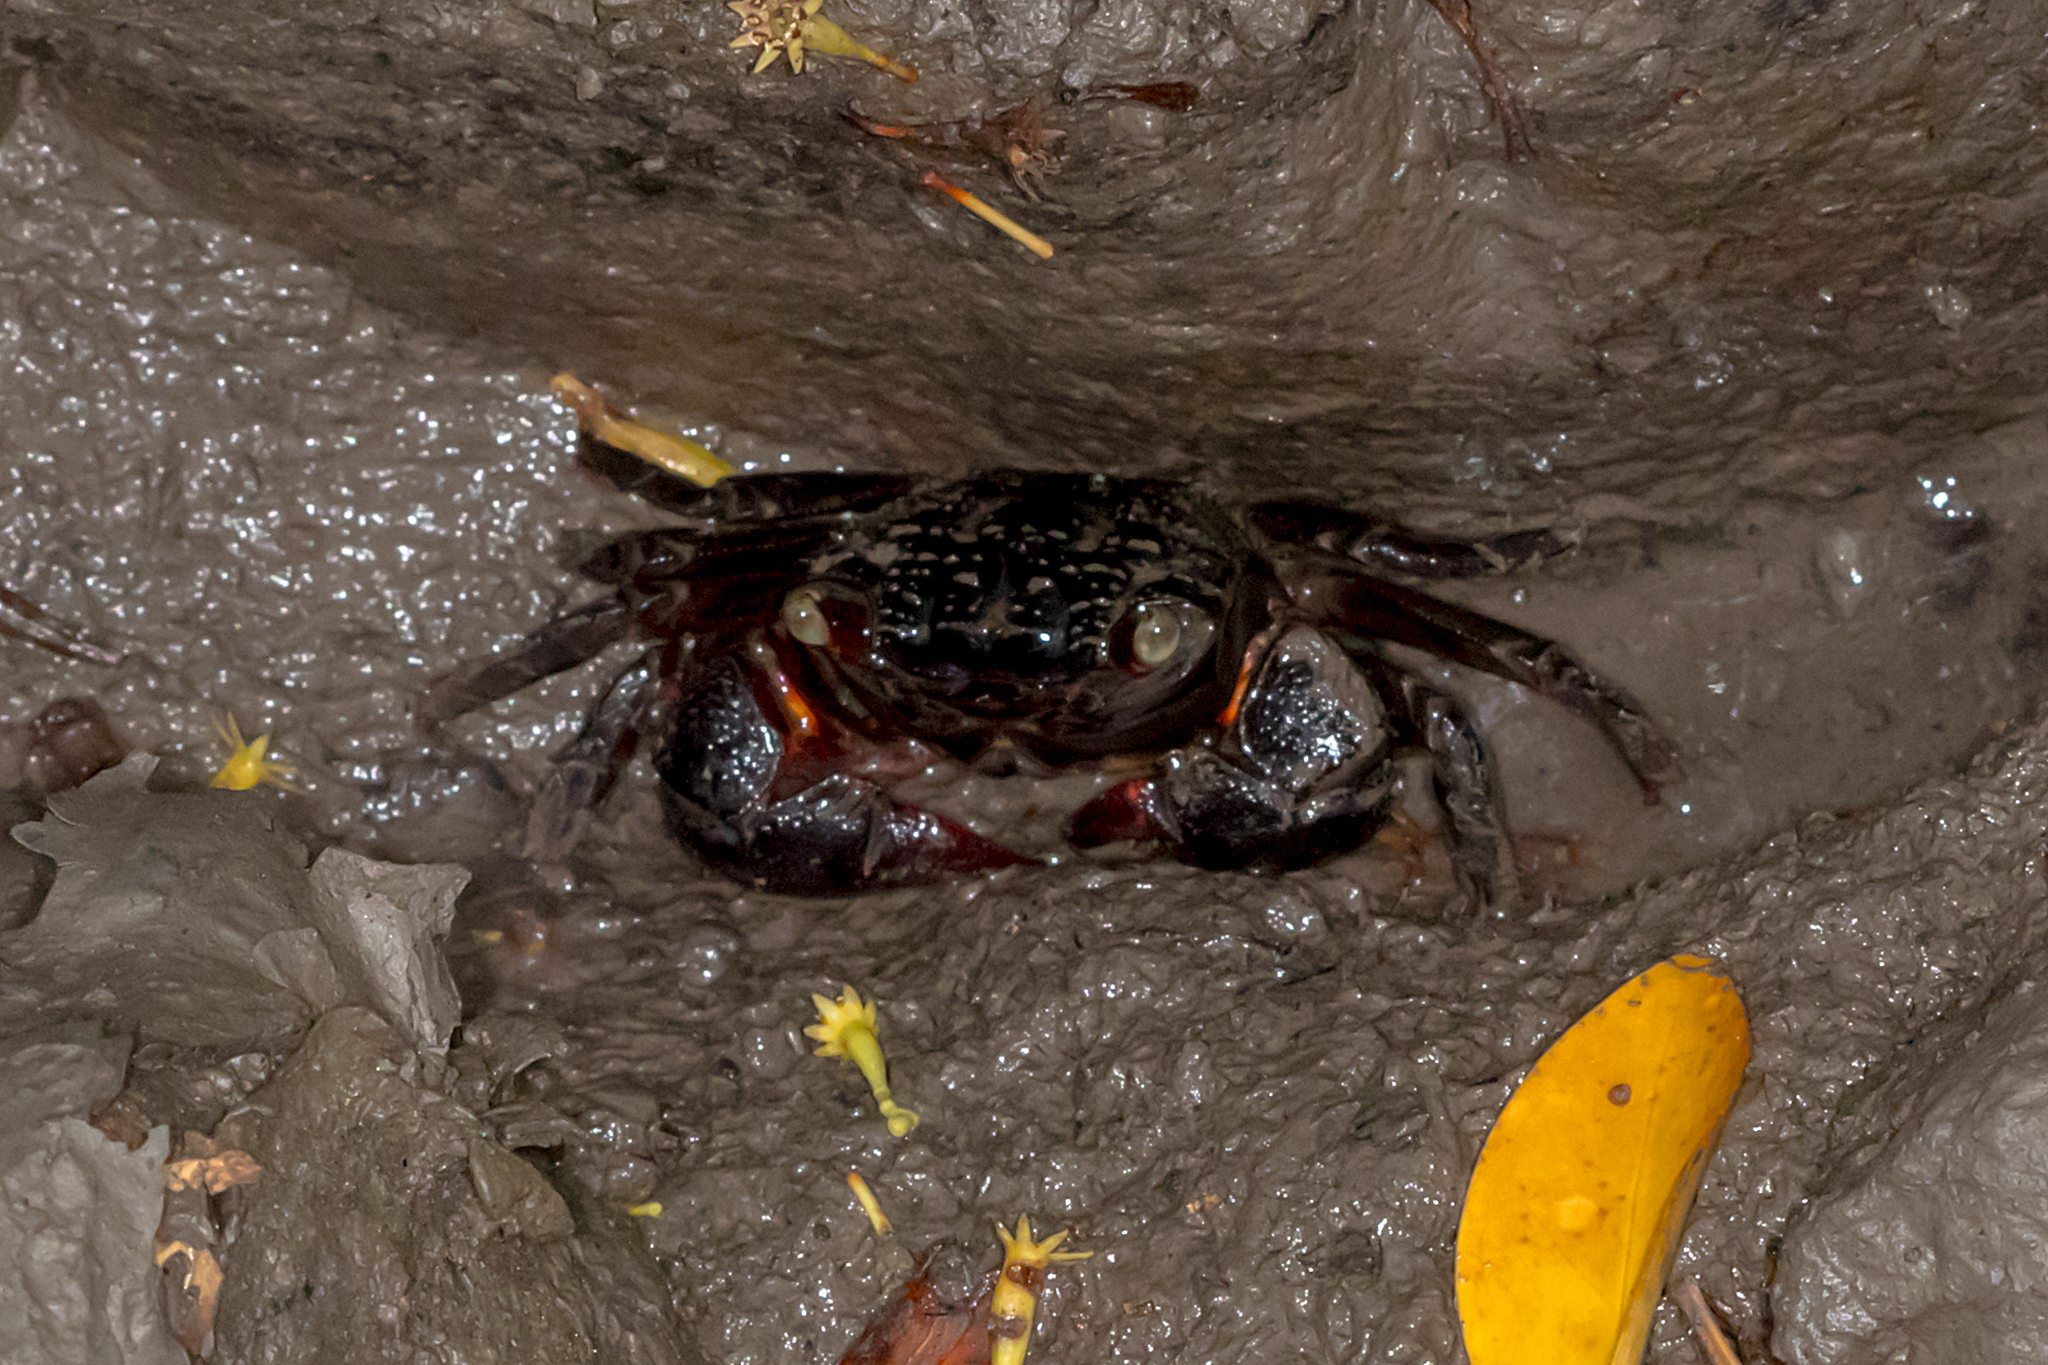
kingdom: Animalia
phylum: Arthropoda
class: Malacostraca
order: Decapoda
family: Sesarmidae
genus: Parasesarma
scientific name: Parasesarma messa
